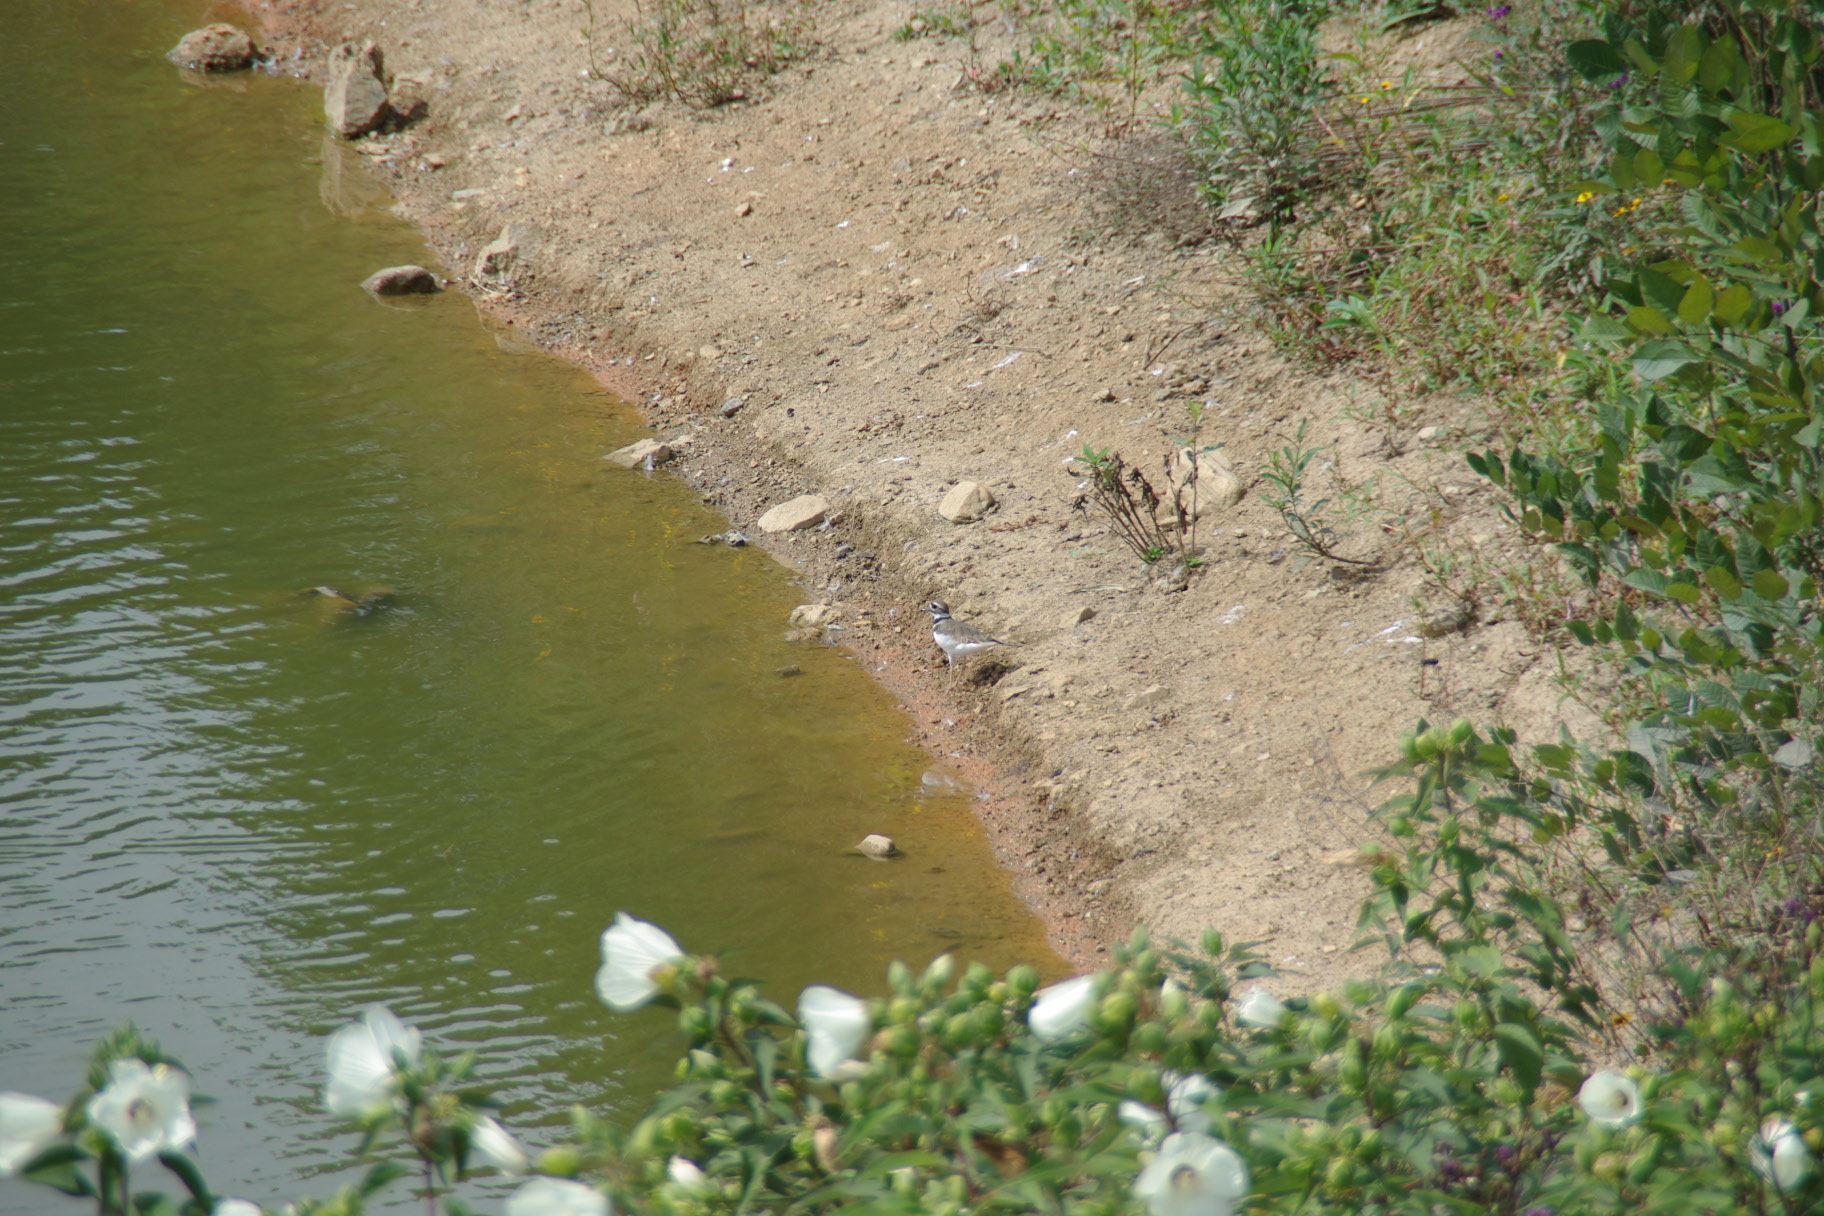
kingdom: Animalia
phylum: Chordata
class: Aves
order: Charadriiformes
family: Charadriidae
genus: Charadrius
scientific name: Charadrius vociferus
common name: Killdeer
